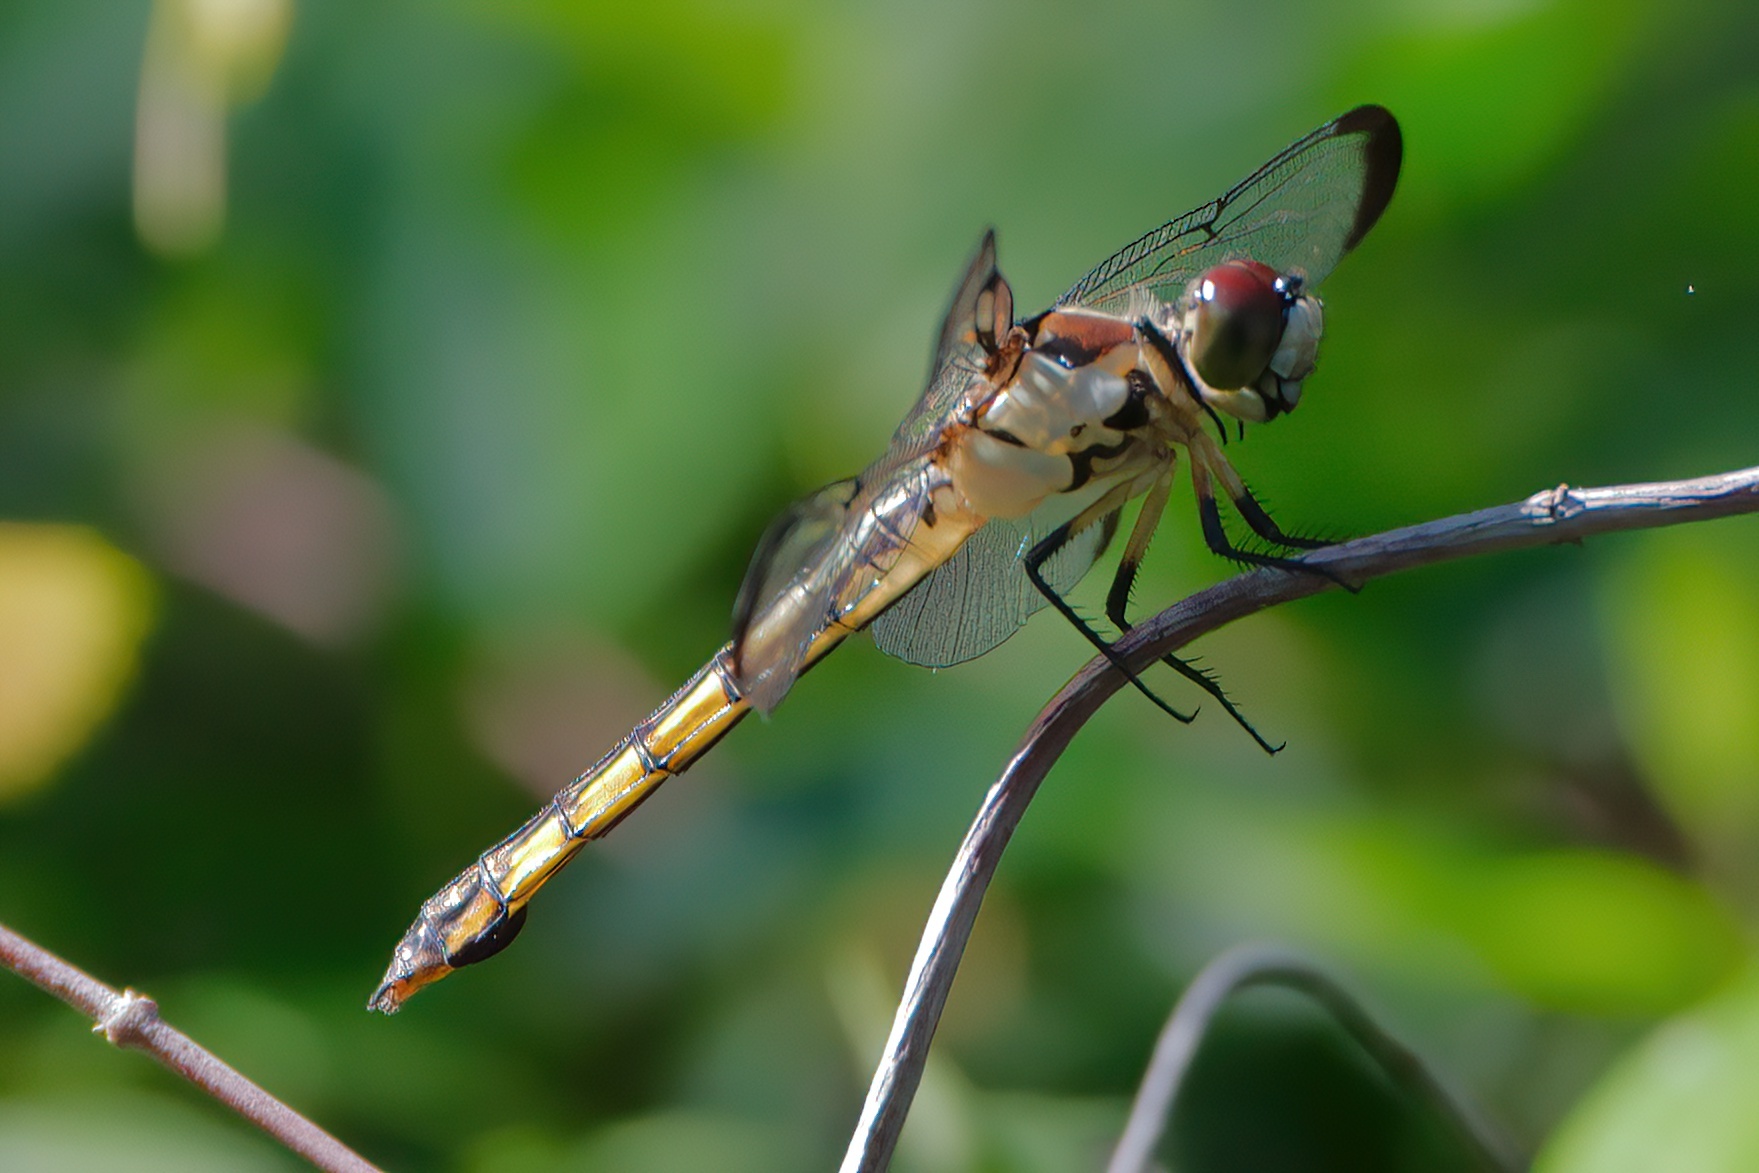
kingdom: Animalia
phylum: Arthropoda
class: Insecta
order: Odonata
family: Libellulidae
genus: Libellula
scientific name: Libellula vibrans
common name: Great blue skimmer
